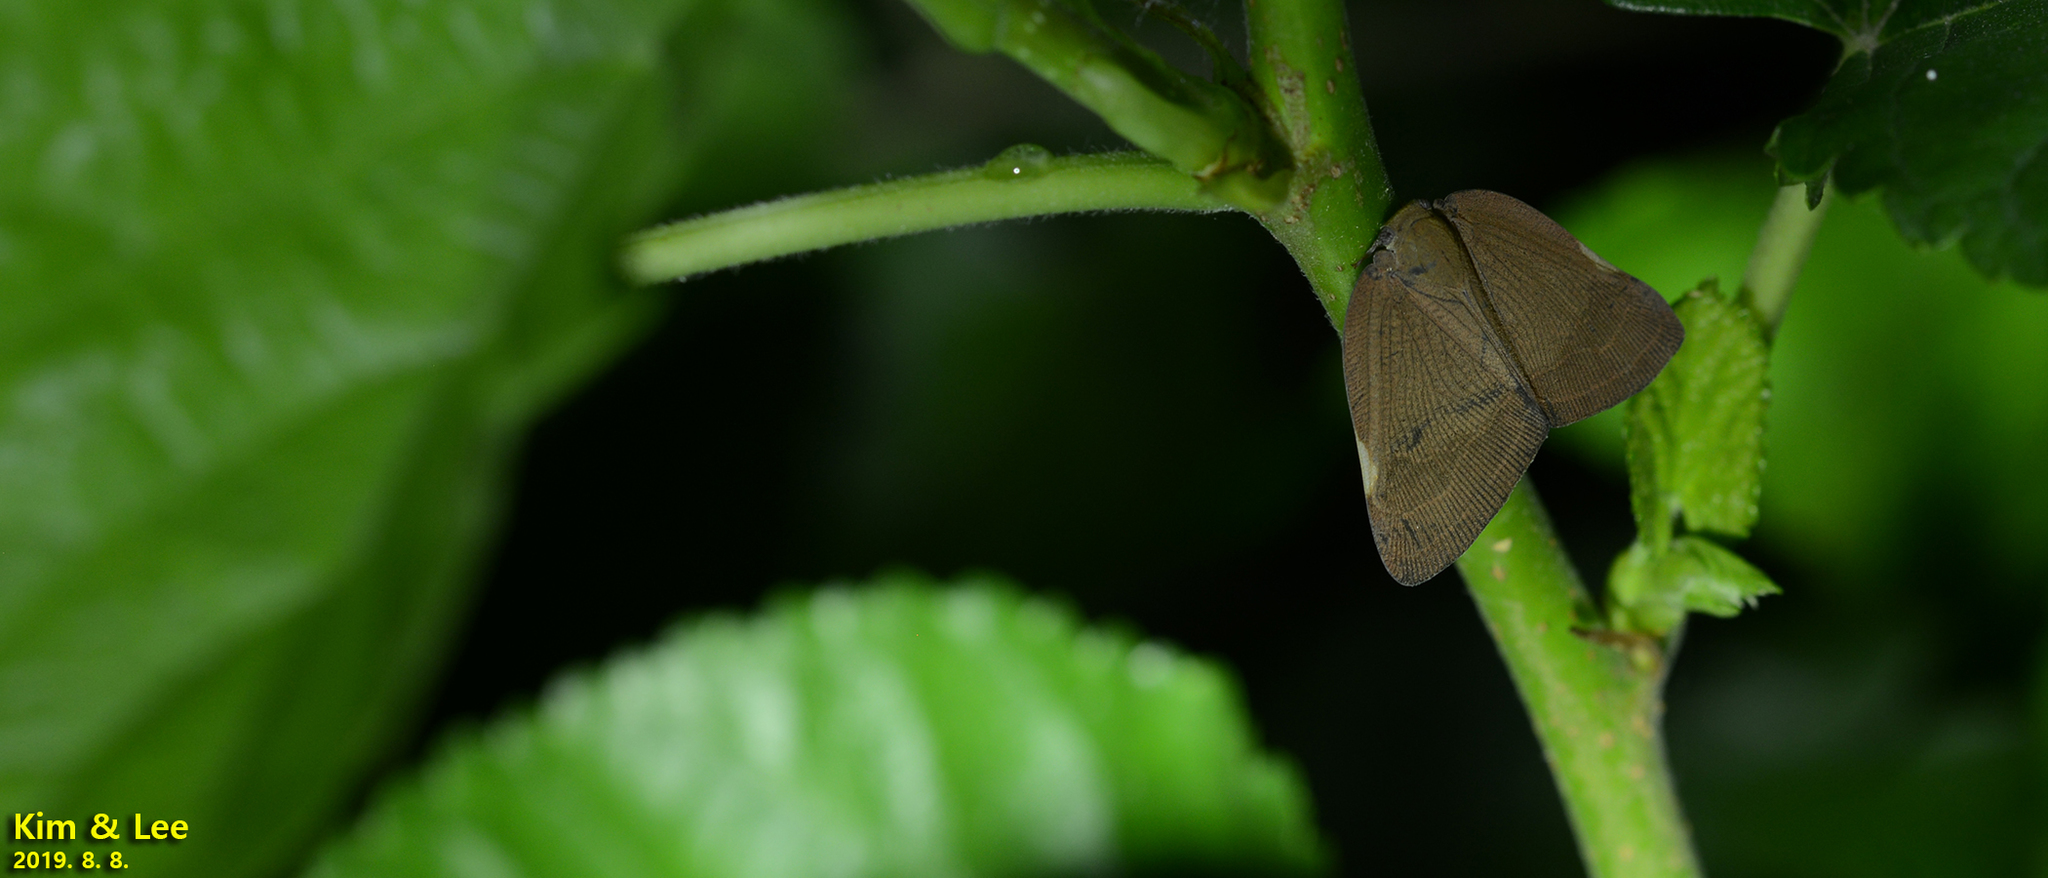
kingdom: Animalia
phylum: Arthropoda
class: Insecta
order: Hemiptera
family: Ricaniidae
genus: Ricanula
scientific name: Ricanula sublimata
